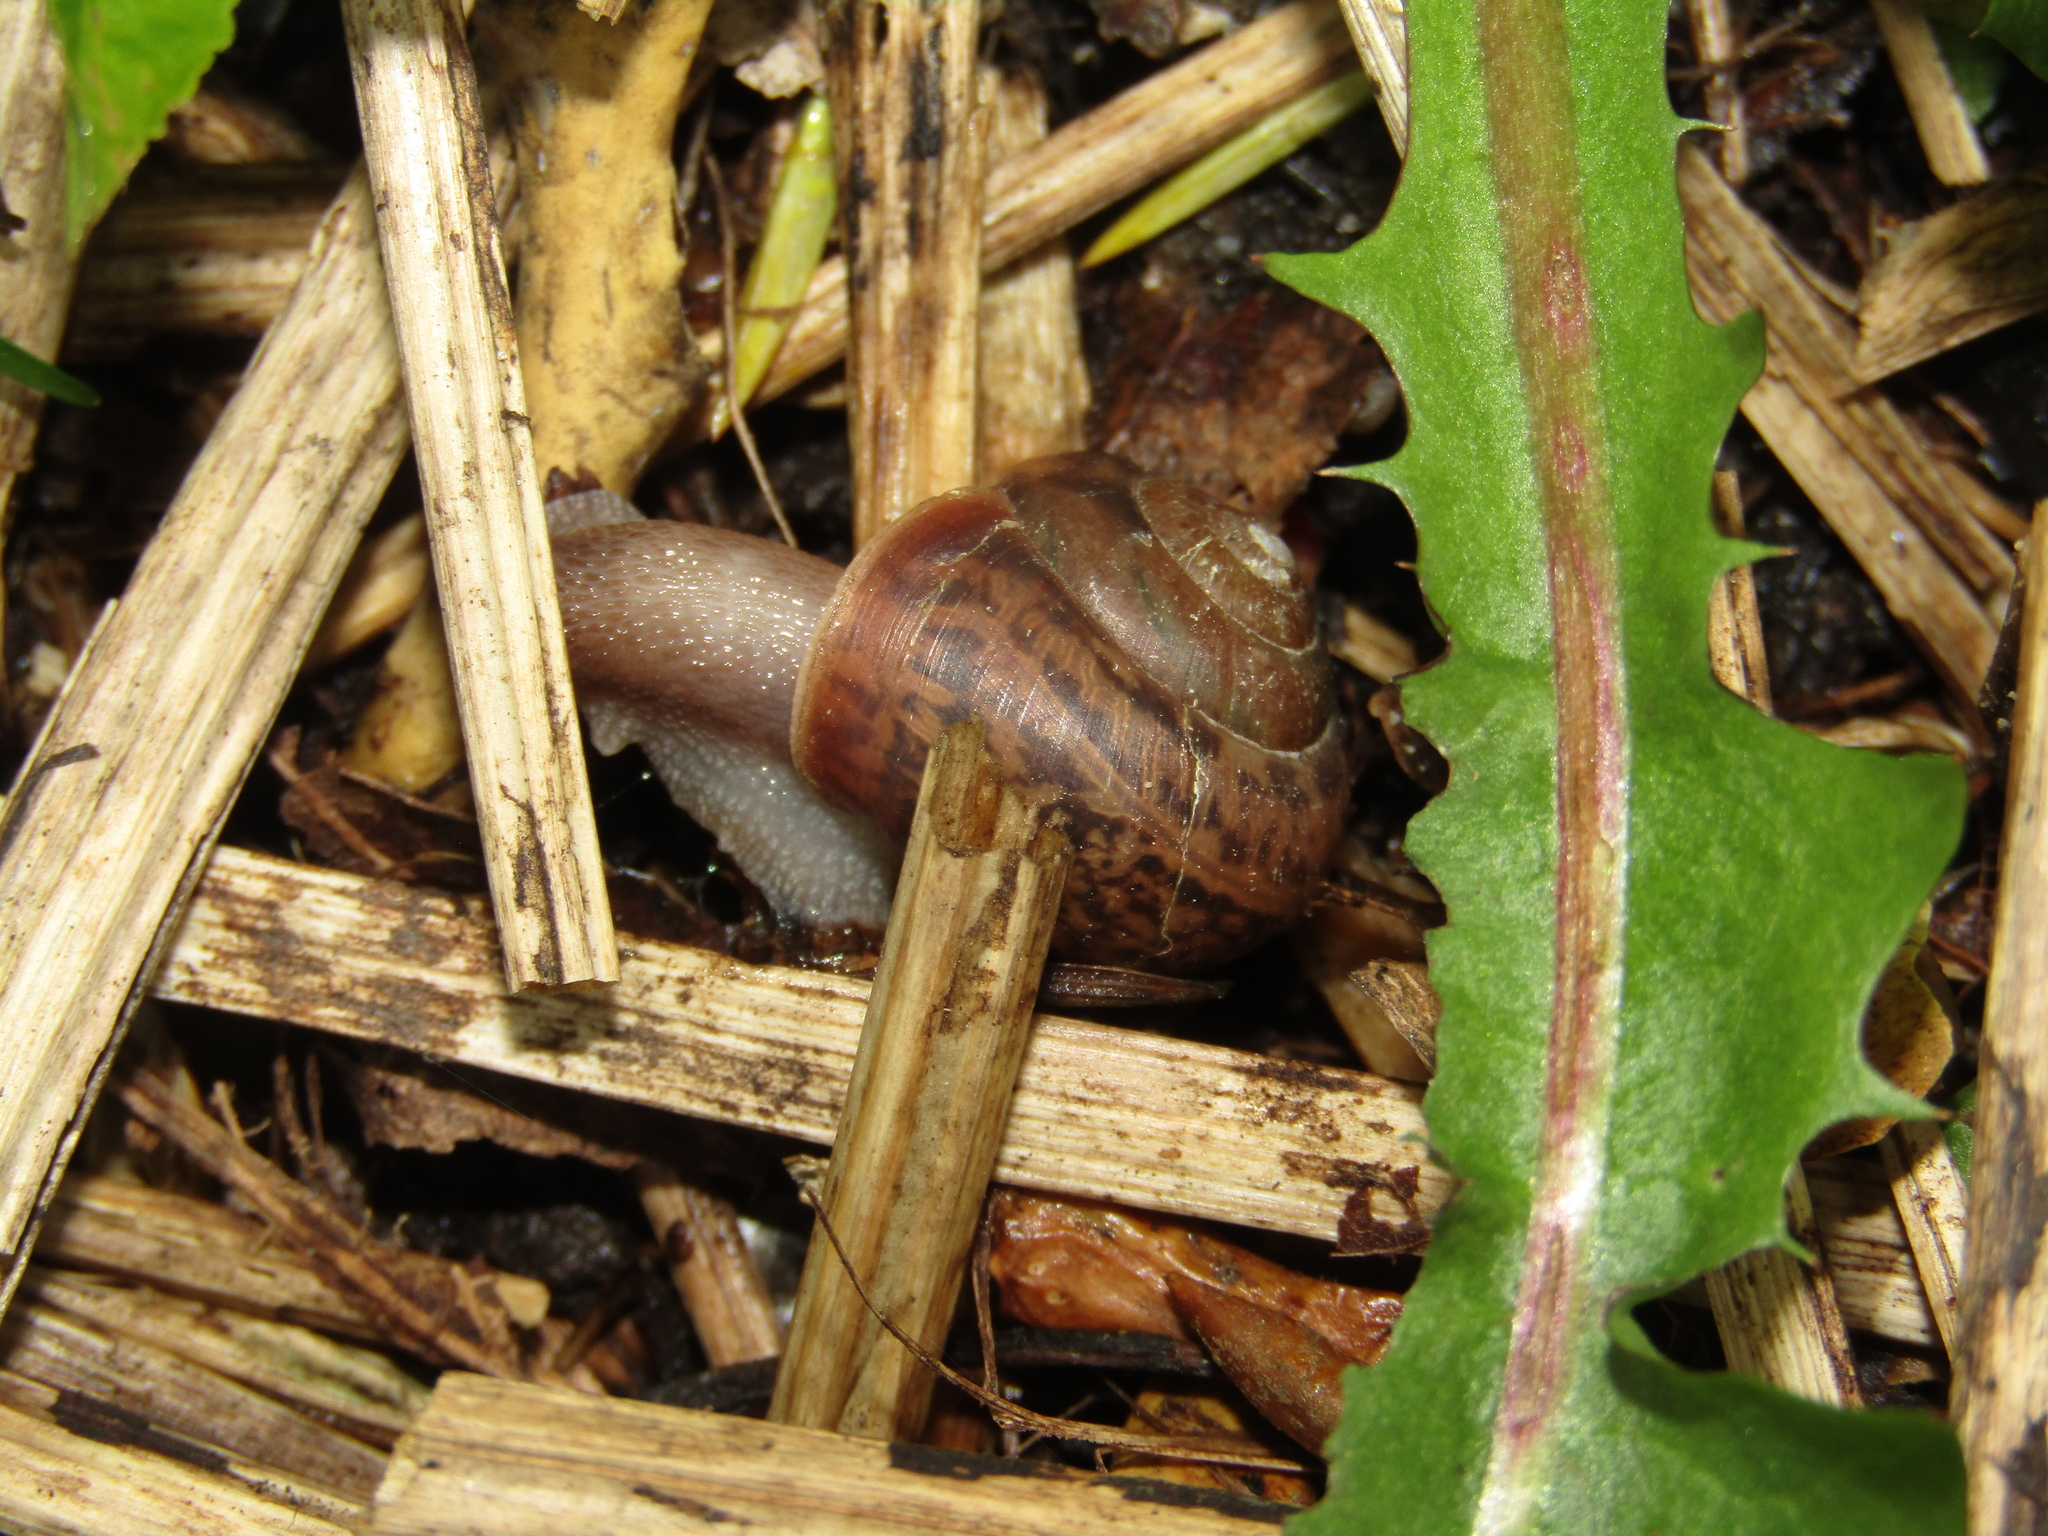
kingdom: Animalia
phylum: Mollusca
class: Gastropoda
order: Stylommatophora
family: Camaenidae
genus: Fruticicola
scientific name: Fruticicola fruticum
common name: Bush snail
